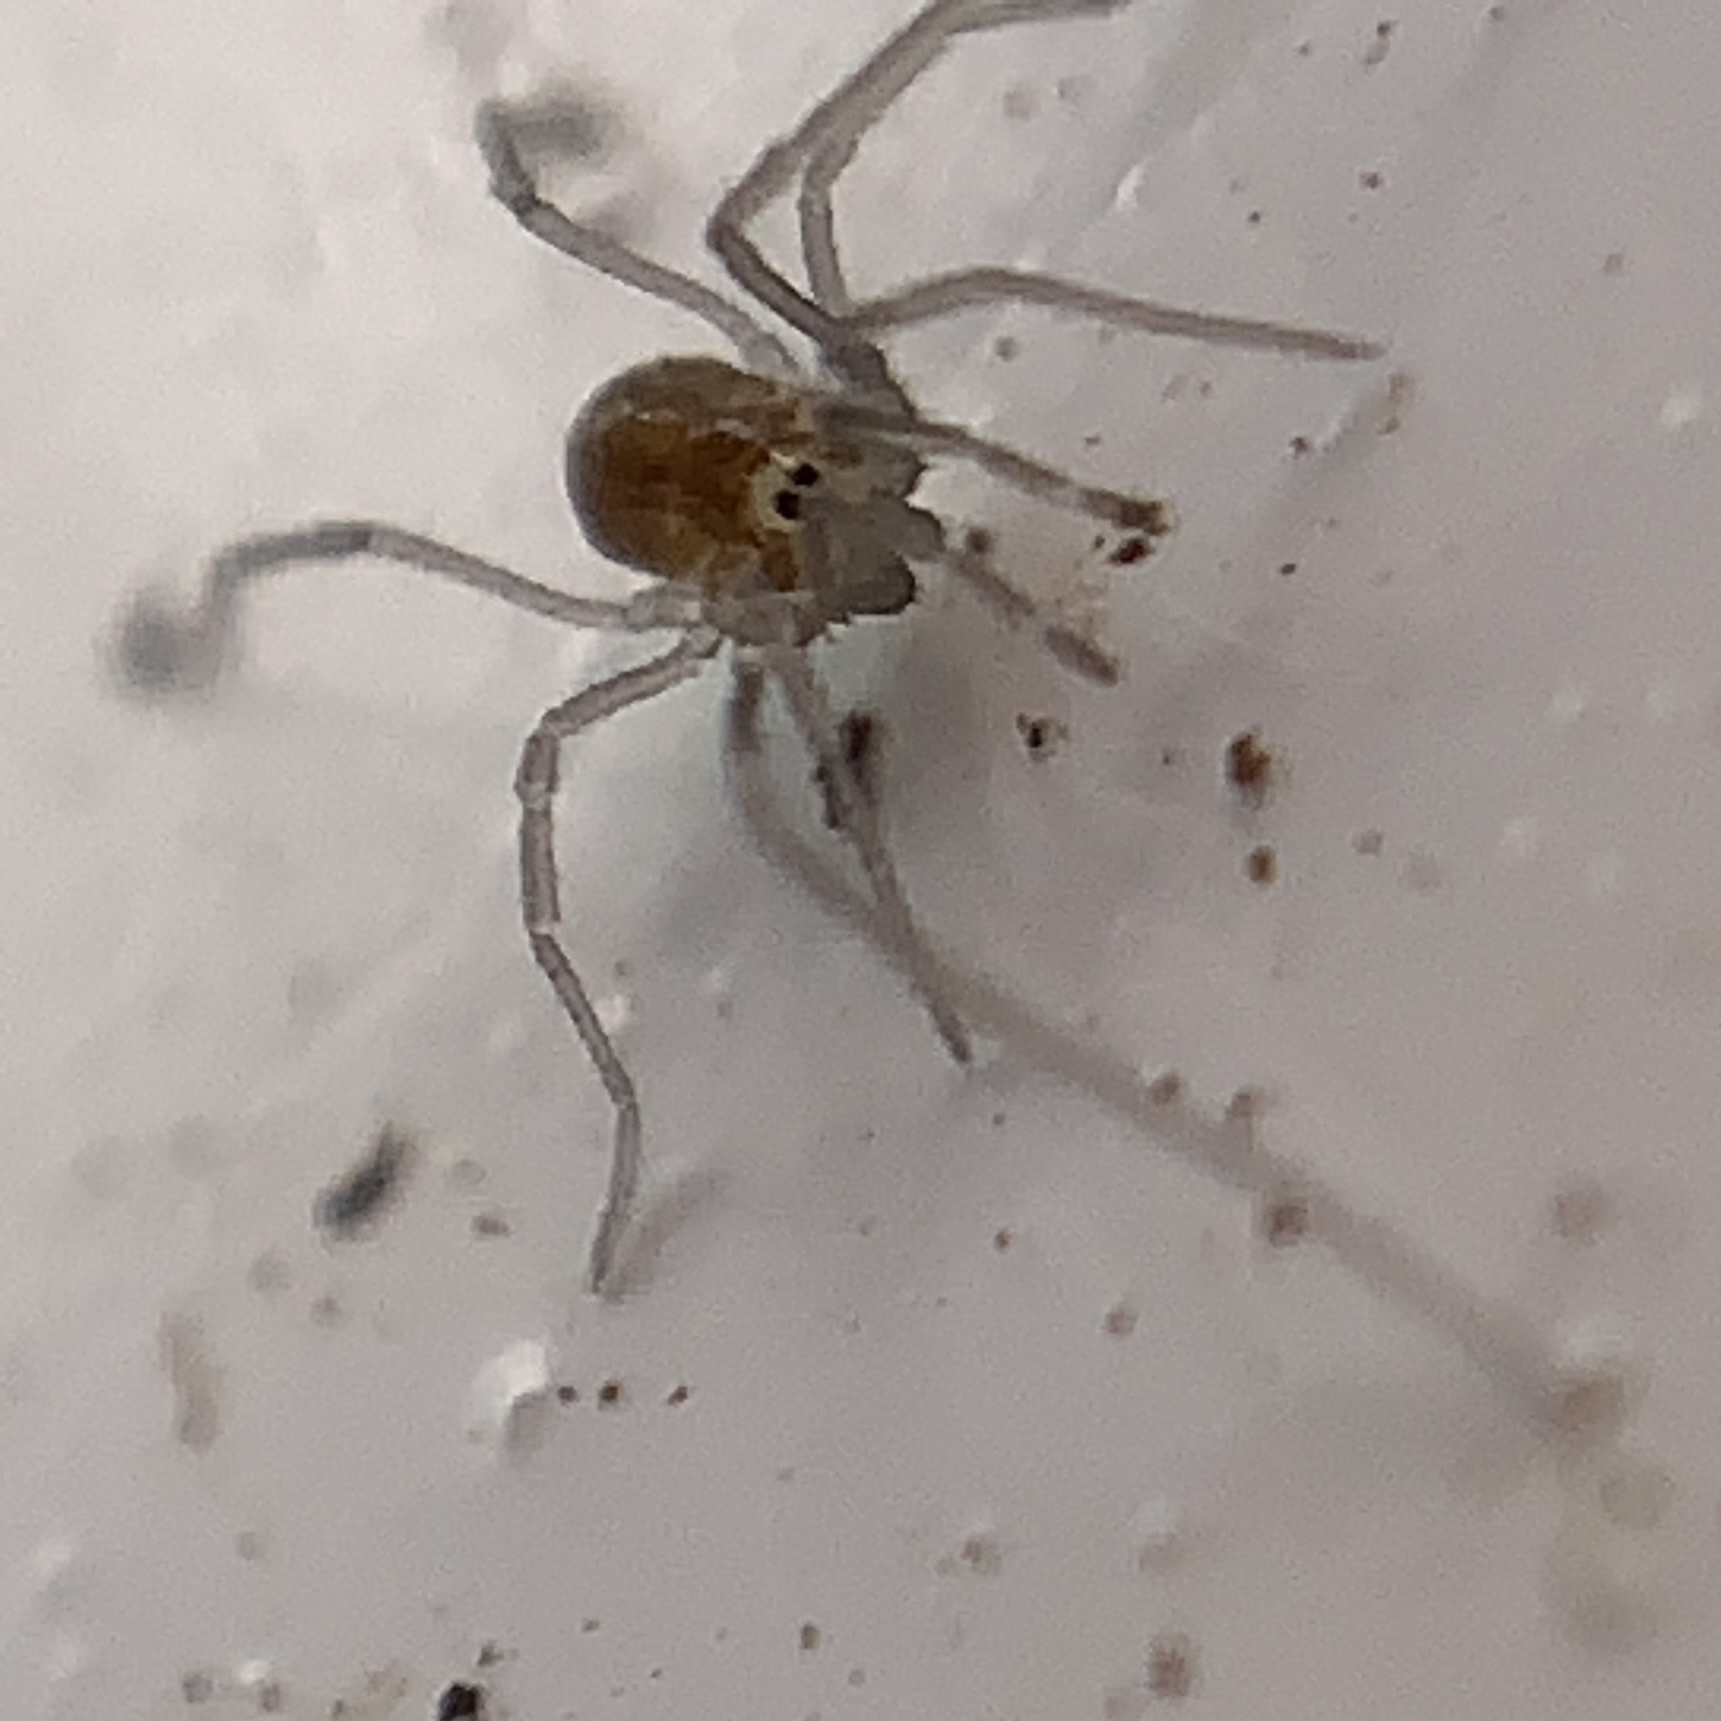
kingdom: Animalia
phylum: Arthropoda
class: Arachnida
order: Opiliones
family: Nemastomatidae
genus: Mitostoma
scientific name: Mitostoma chrysomelas
